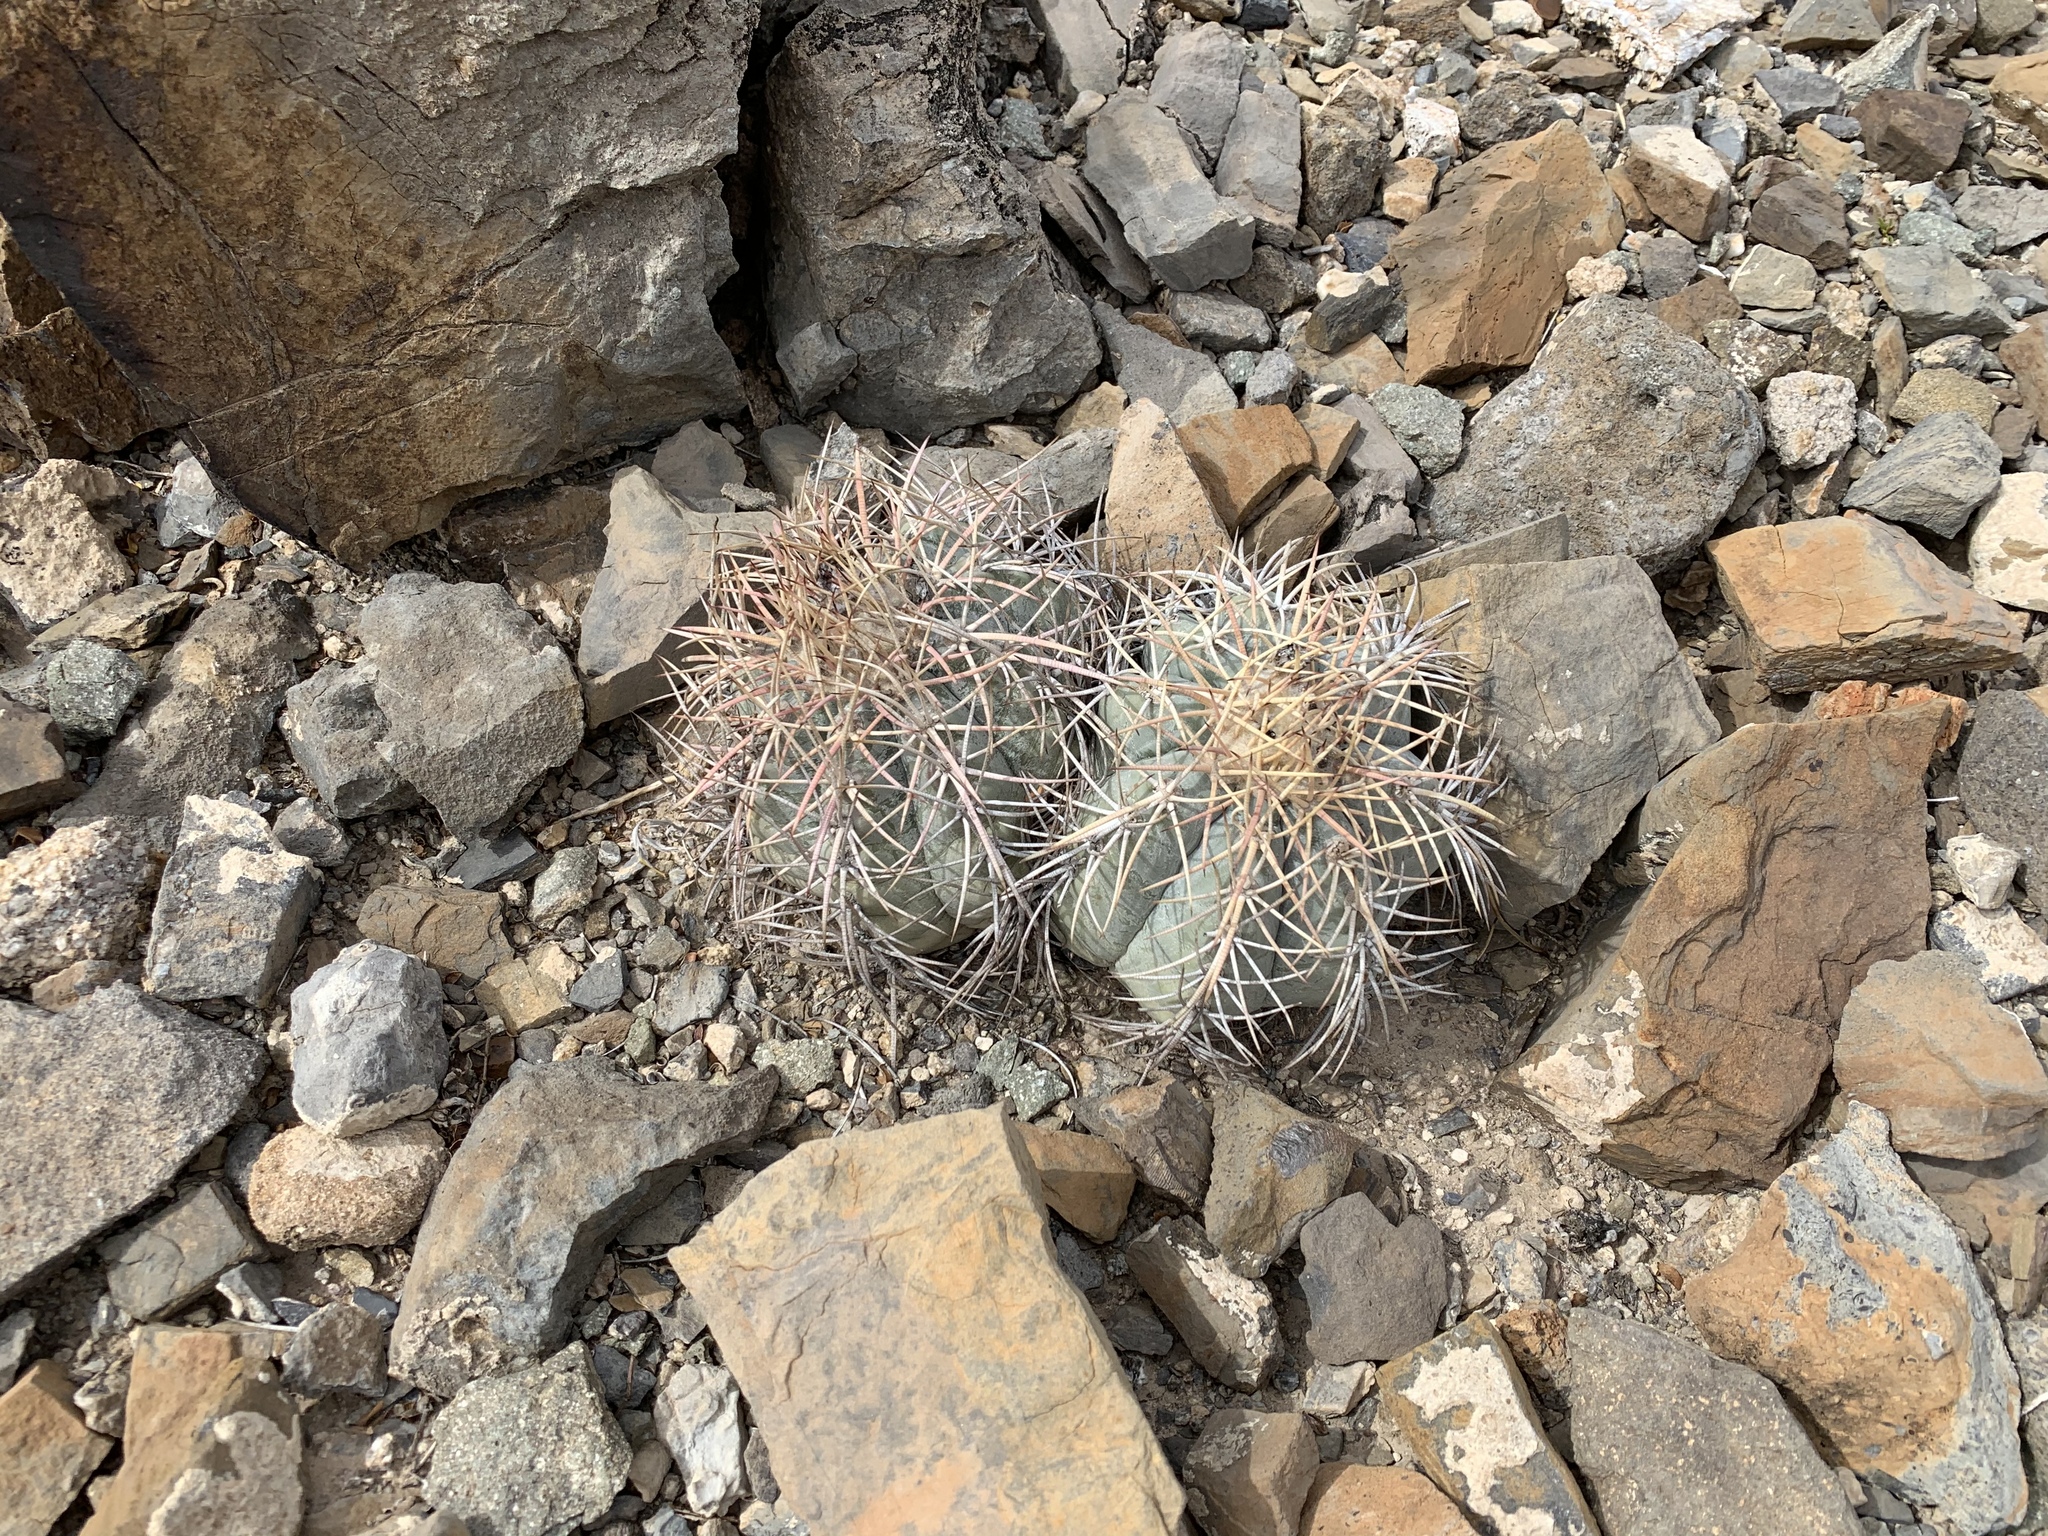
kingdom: Plantae
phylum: Tracheophyta
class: Magnoliopsida
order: Caryophyllales
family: Cactaceae
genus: Echinocactus
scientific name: Echinocactus horizonthalonius
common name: Devilshead
